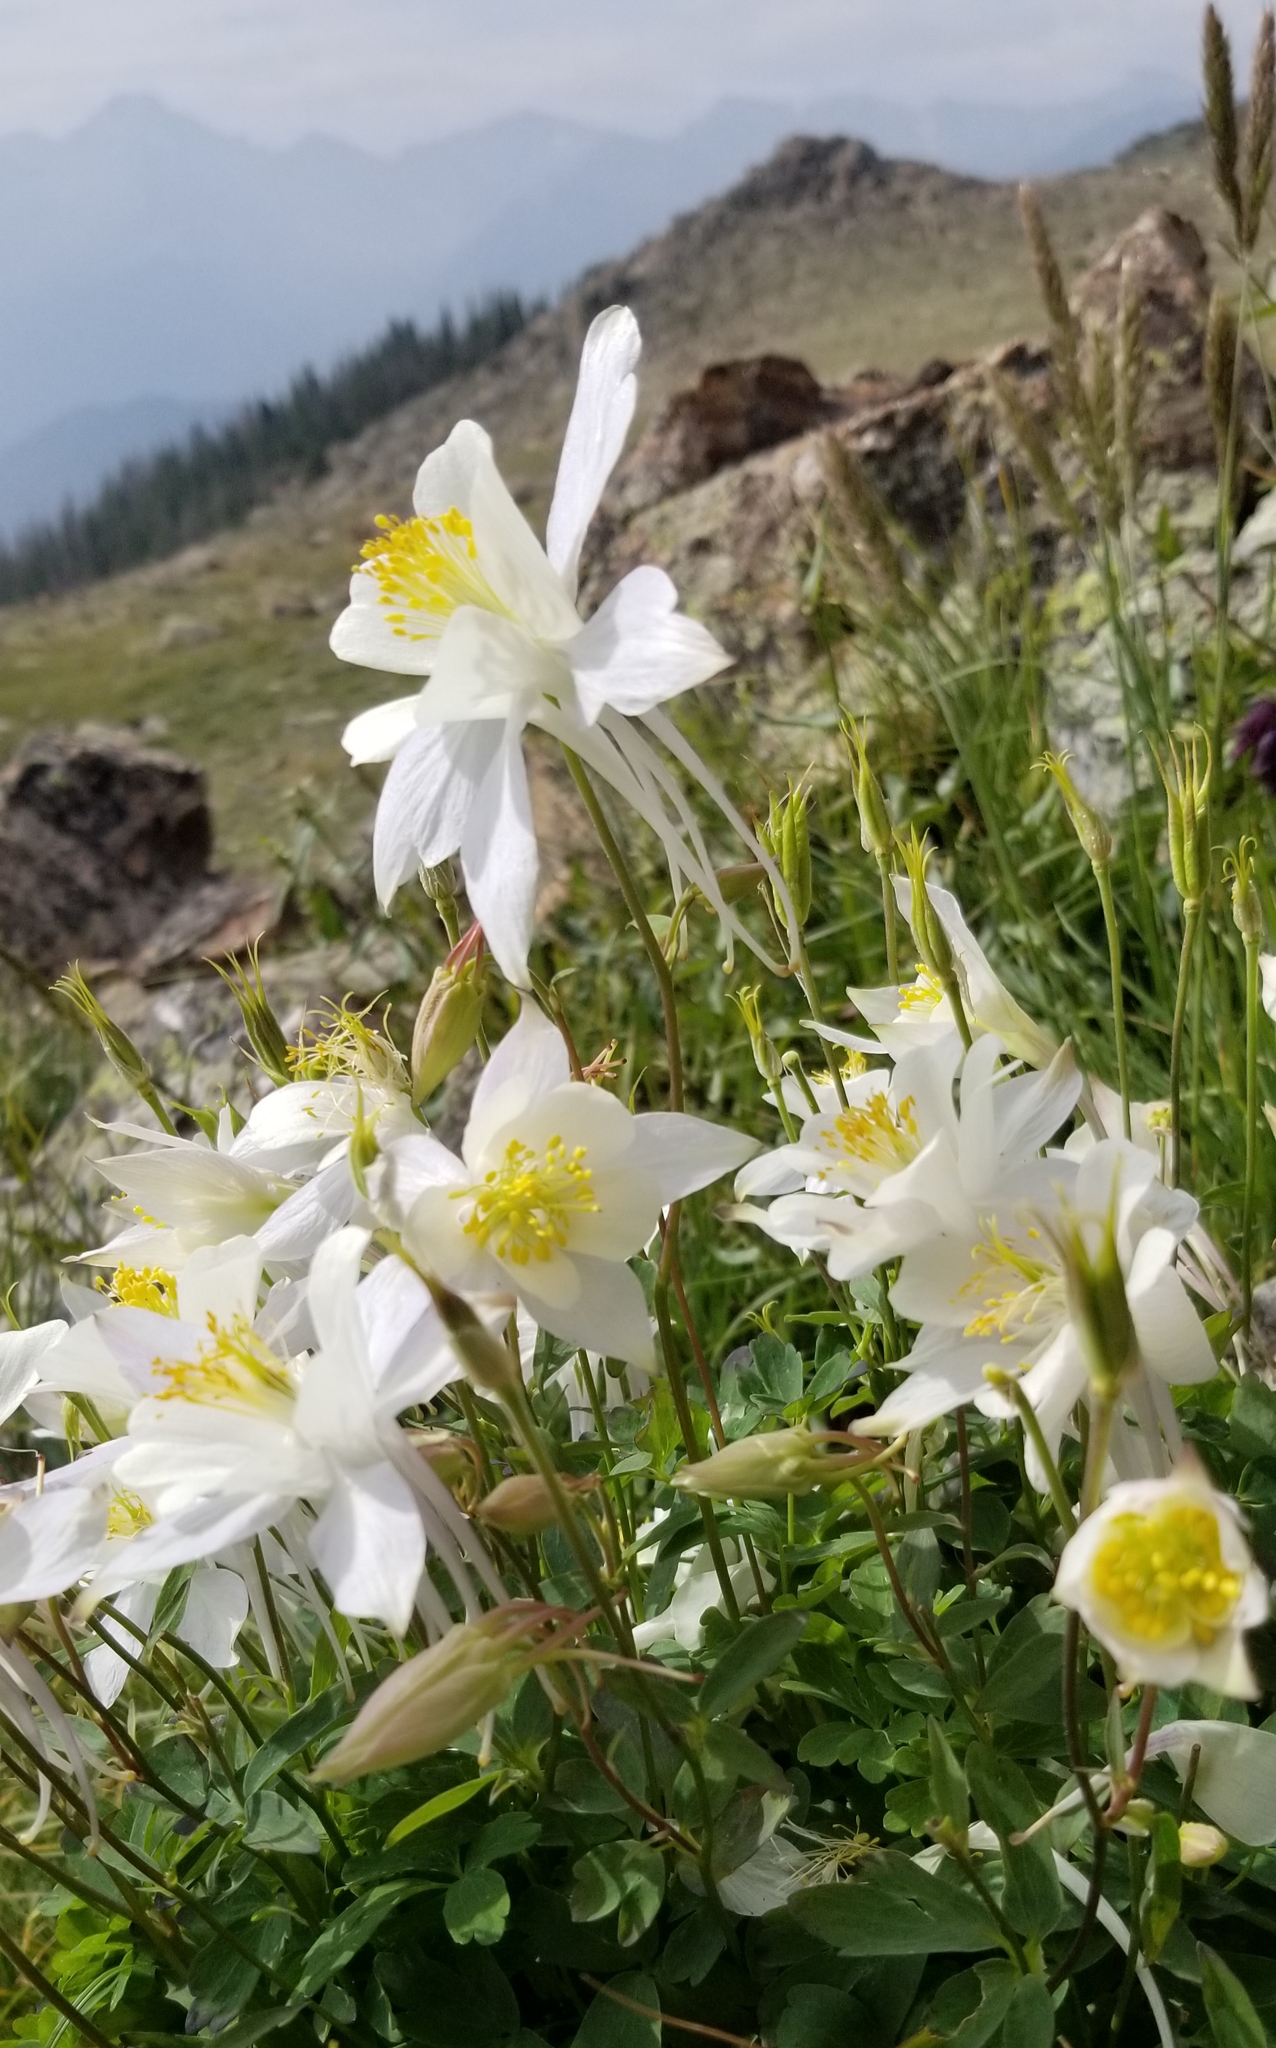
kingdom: Plantae
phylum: Tracheophyta
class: Magnoliopsida
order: Ranunculales
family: Ranunculaceae
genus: Aquilegia
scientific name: Aquilegia coerulea
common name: Rocky mountain columbine
